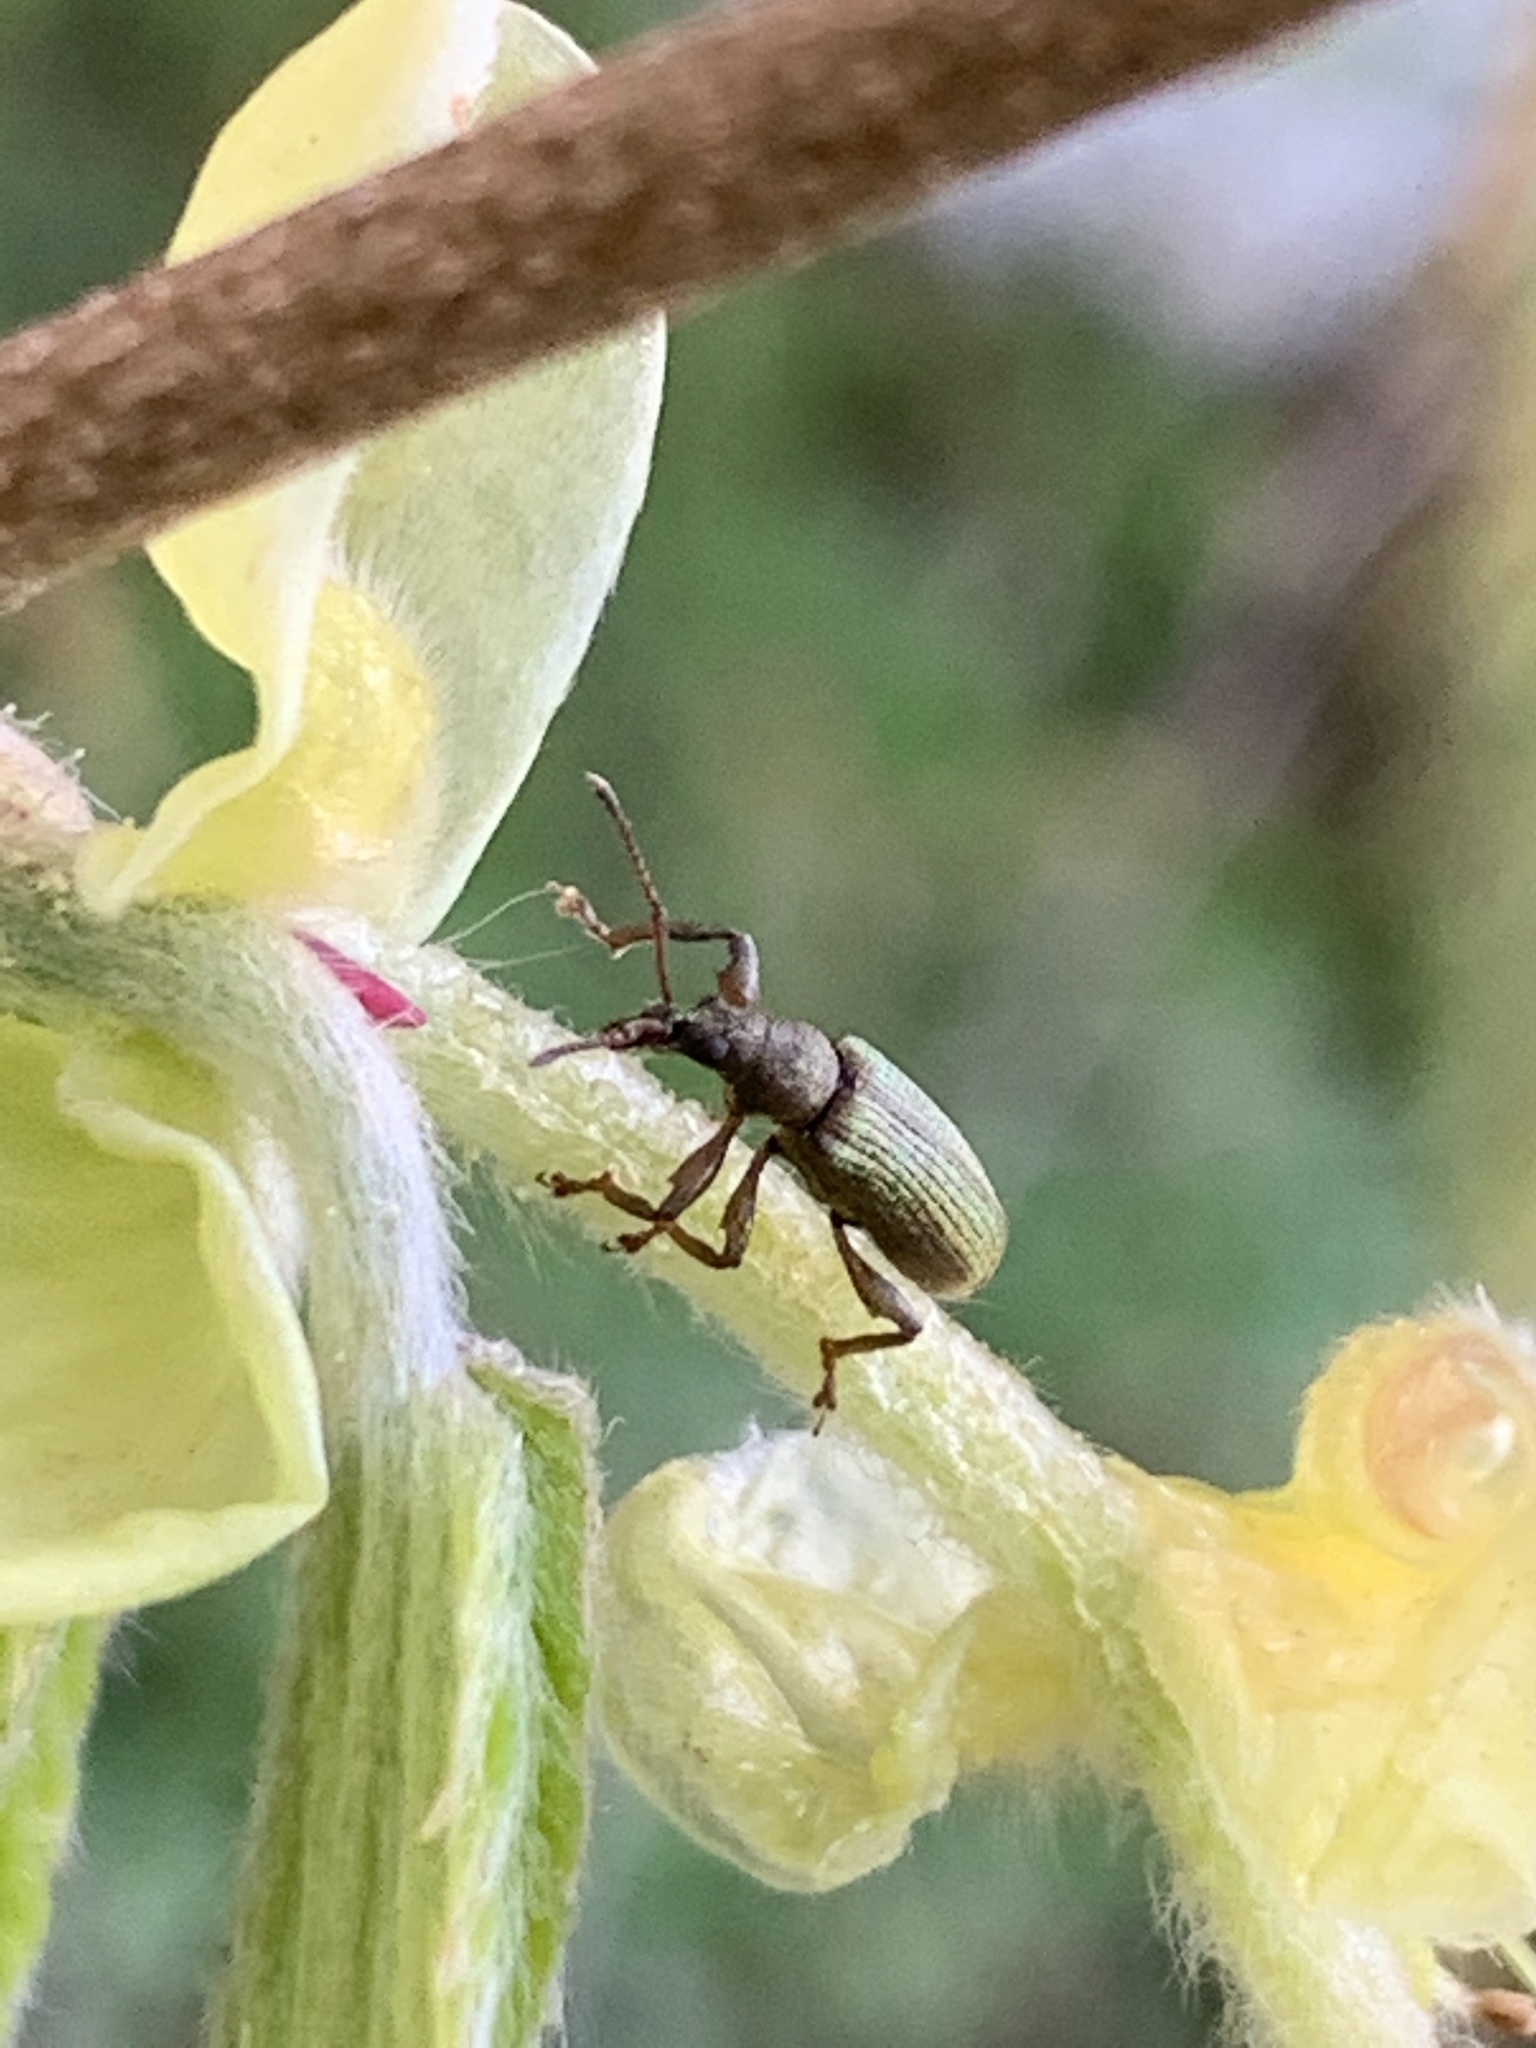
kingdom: Animalia
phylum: Arthropoda
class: Insecta
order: Coleoptera
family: Curculionidae
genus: Parascythopus
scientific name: Parascythopus intrusus
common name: Weevil
